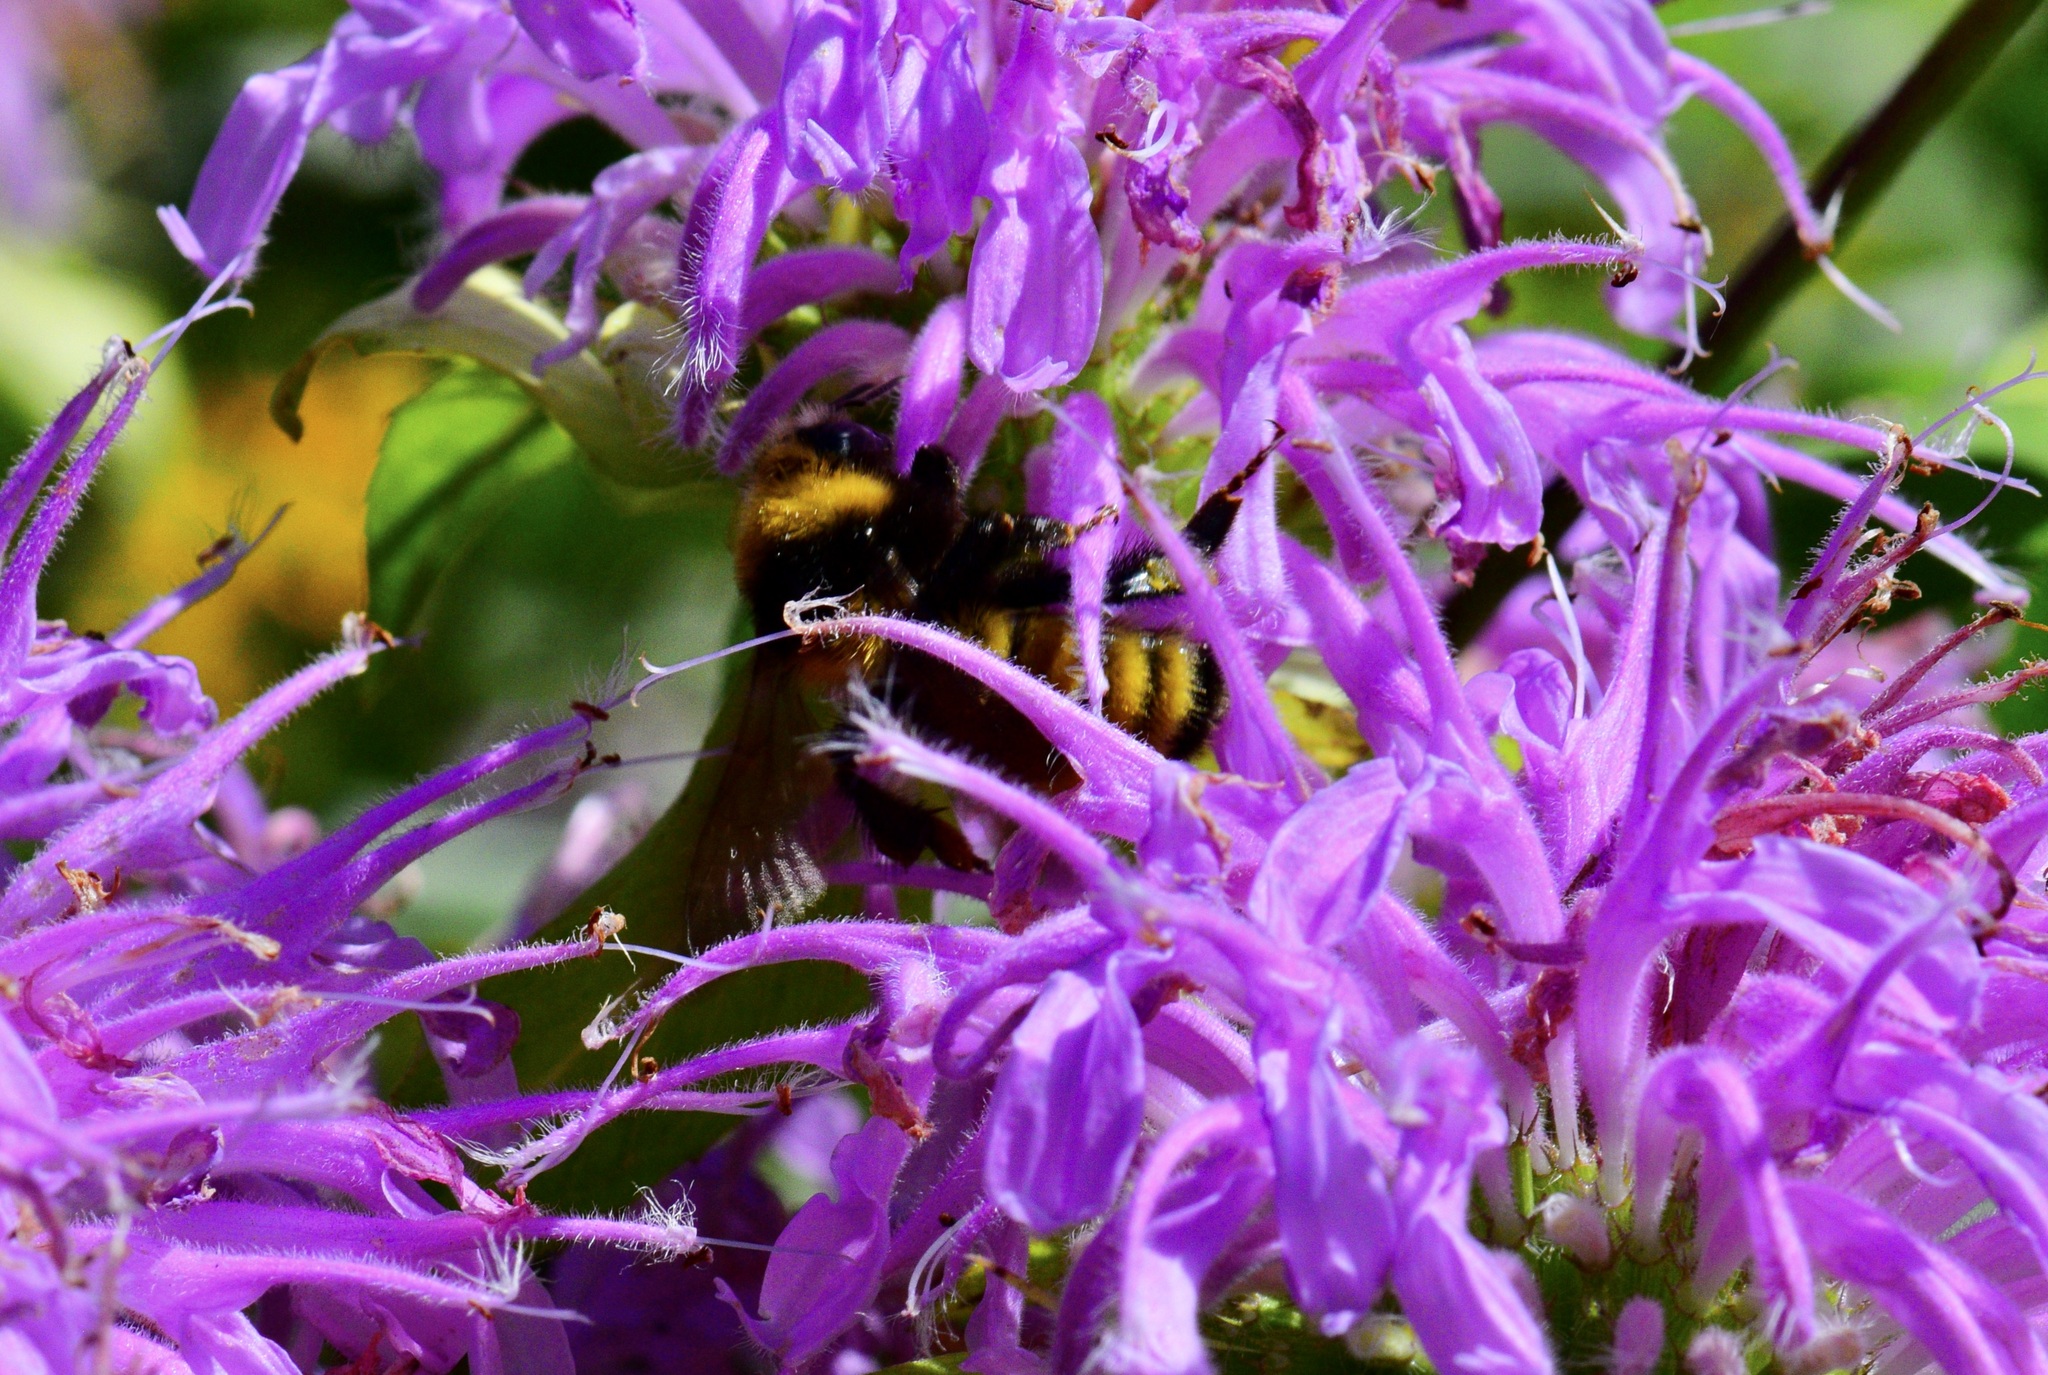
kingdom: Animalia
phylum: Arthropoda
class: Insecta
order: Hymenoptera
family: Apidae
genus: Bombus
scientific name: Bombus borealis
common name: Northern amber bumble bee
